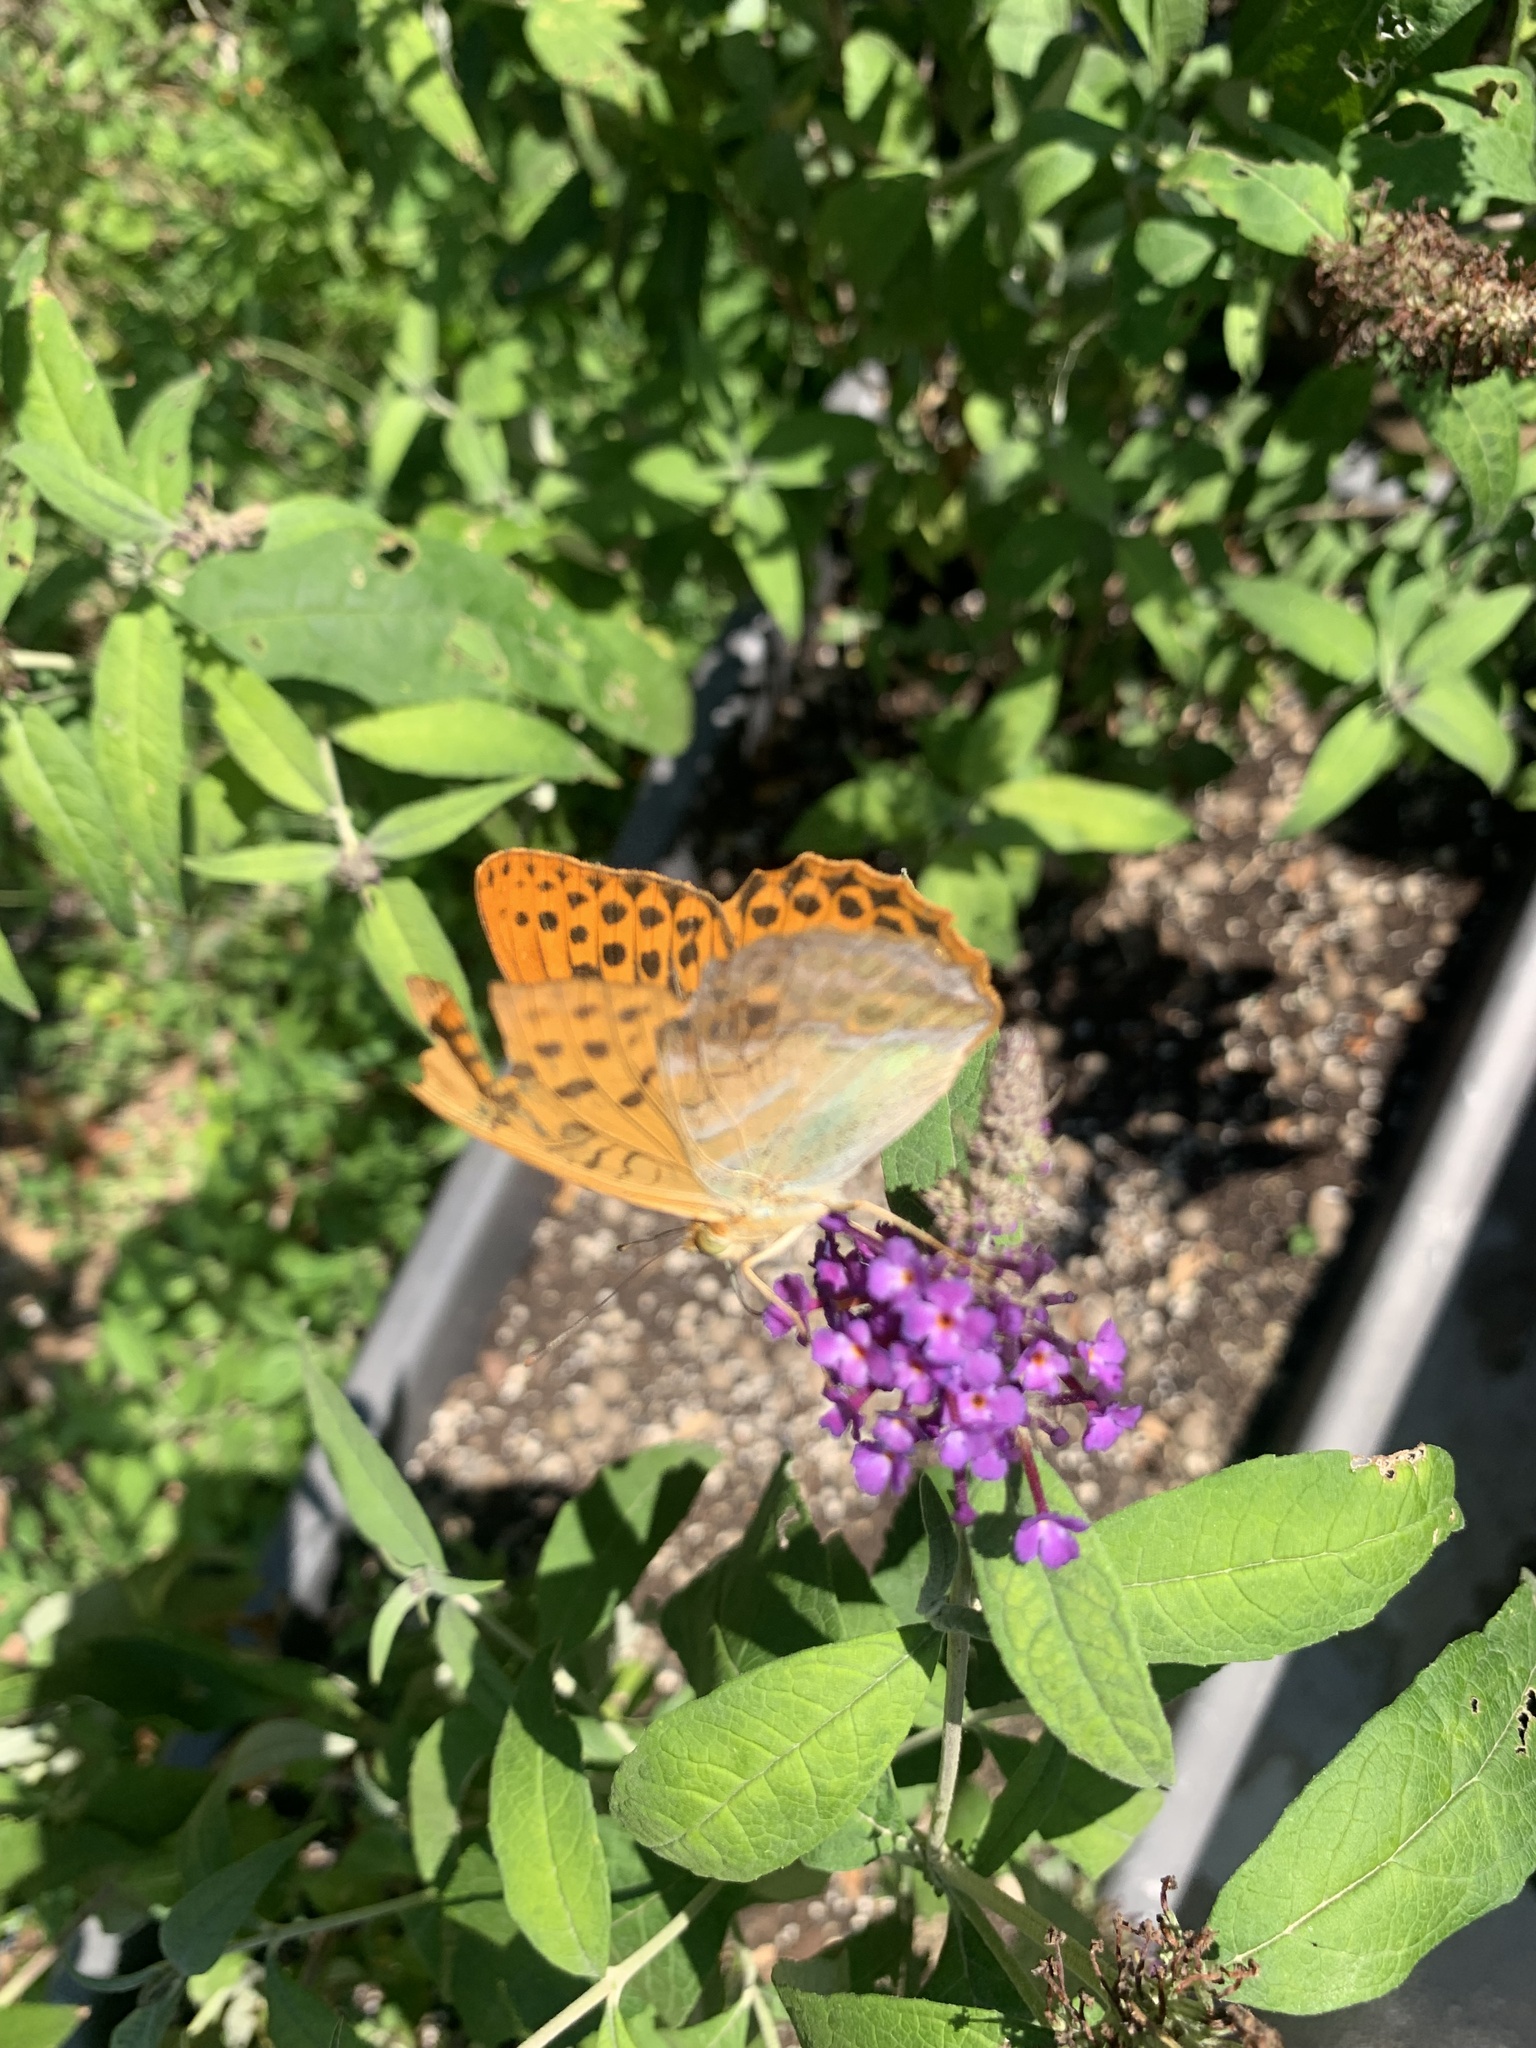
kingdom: Animalia
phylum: Arthropoda
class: Insecta
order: Lepidoptera
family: Nymphalidae
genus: Argynnis
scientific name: Argynnis paphia
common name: Silver-washed fritillary
